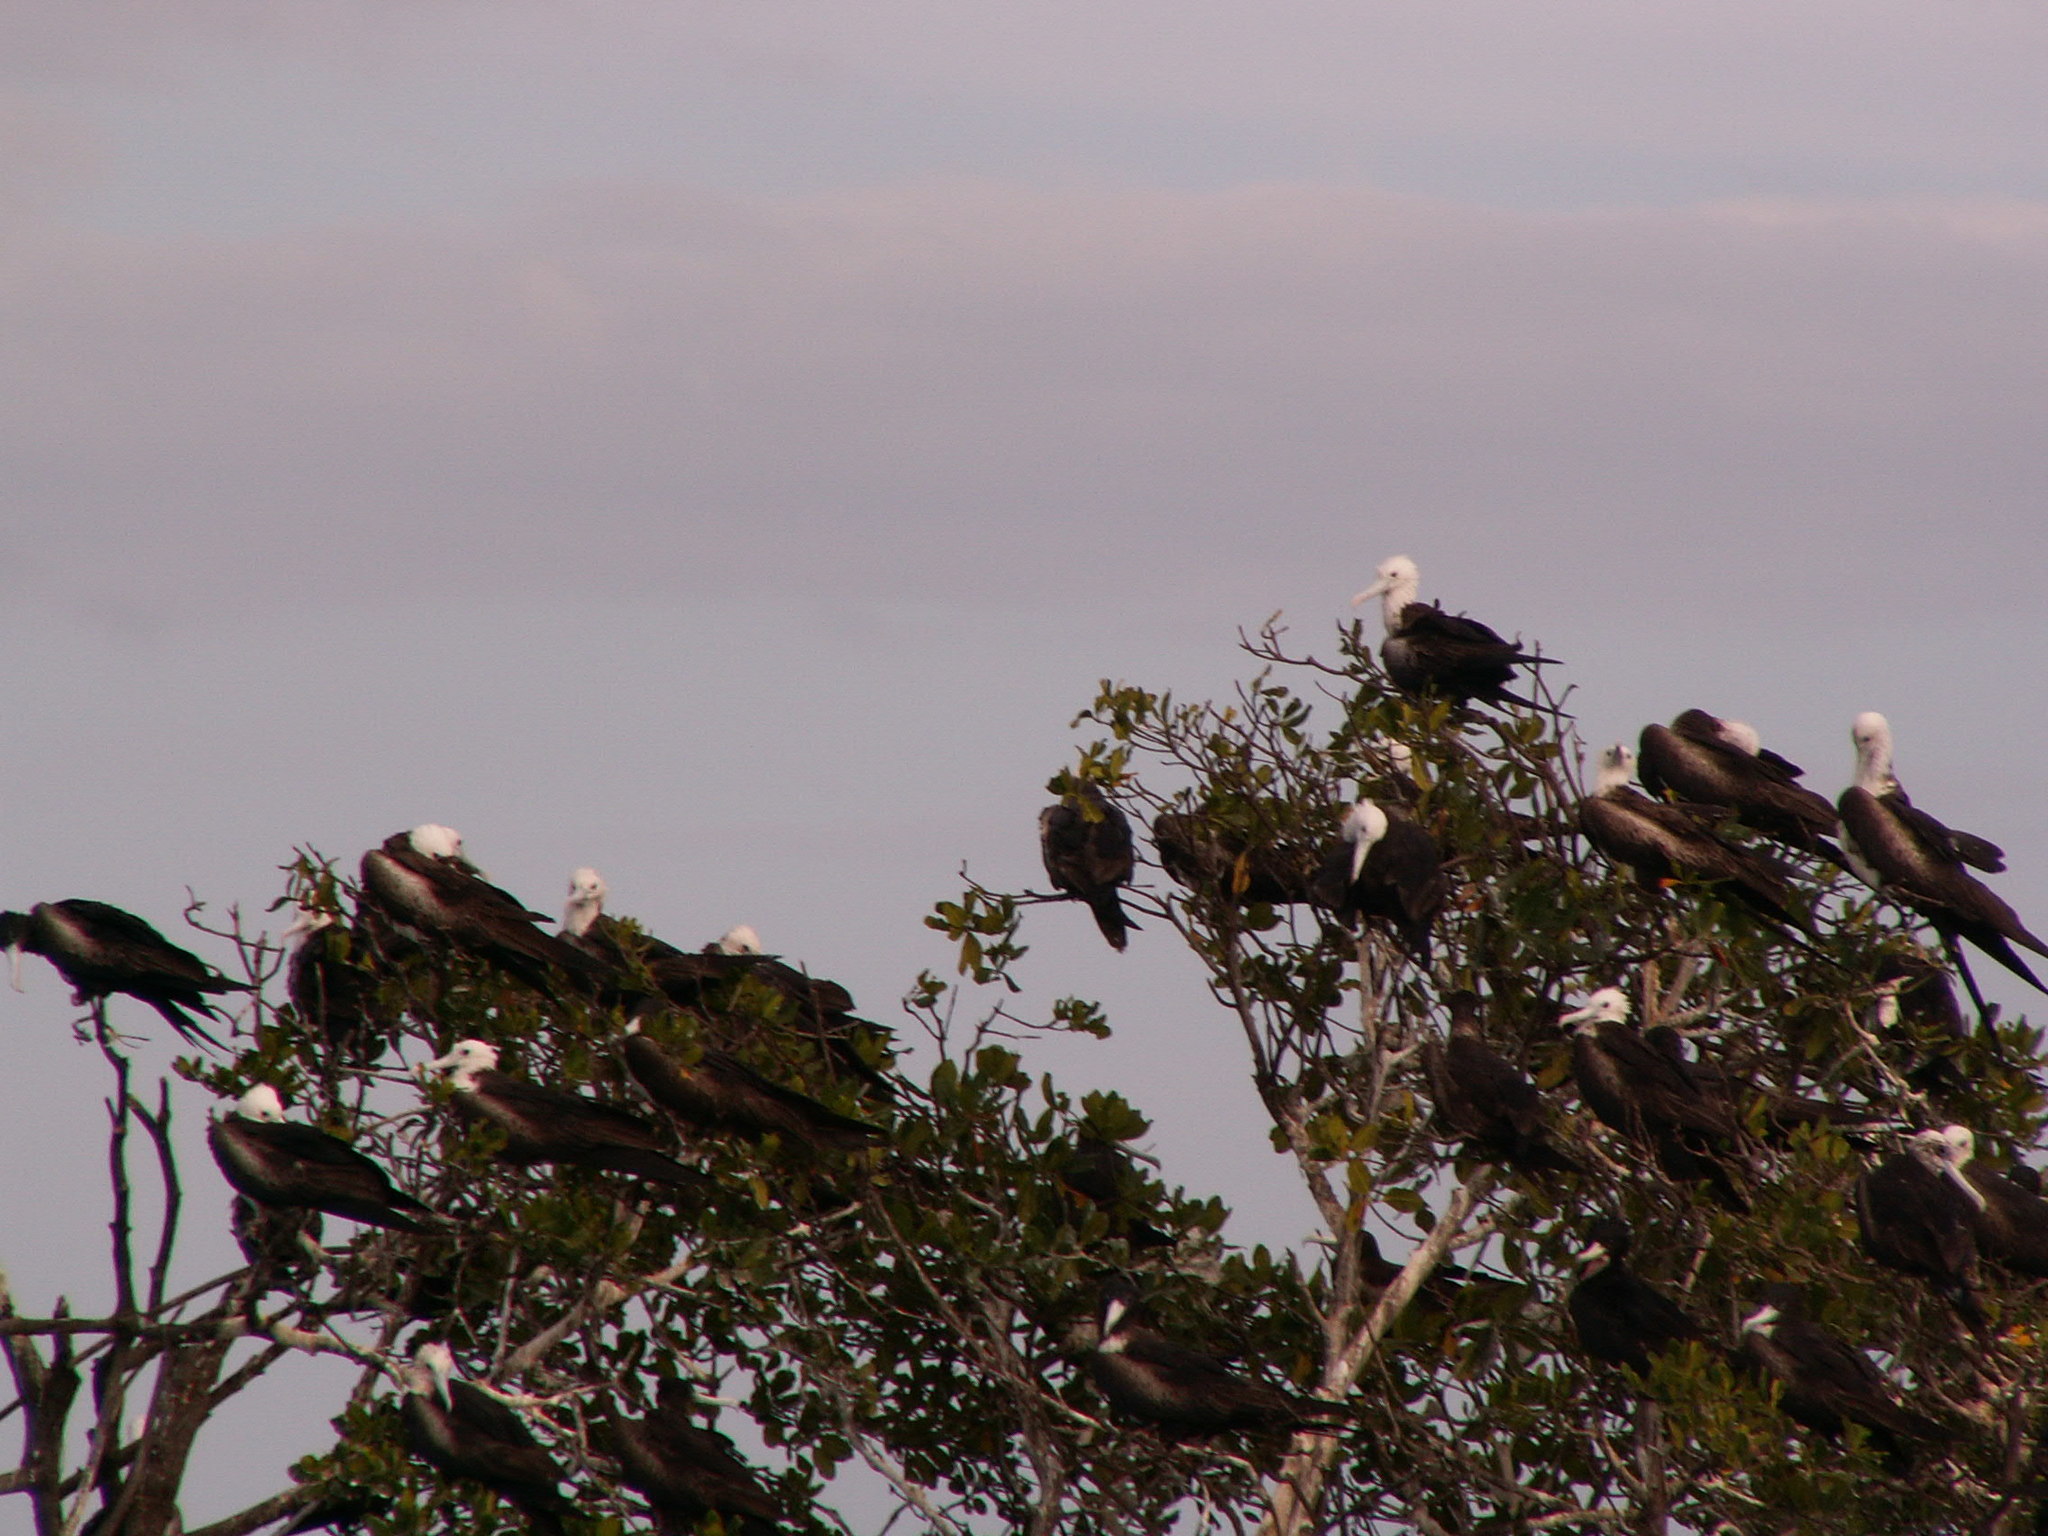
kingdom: Animalia
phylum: Chordata
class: Aves
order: Suliformes
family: Fregatidae
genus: Fregata
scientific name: Fregata magnificens
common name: Magnificent frigatebird
